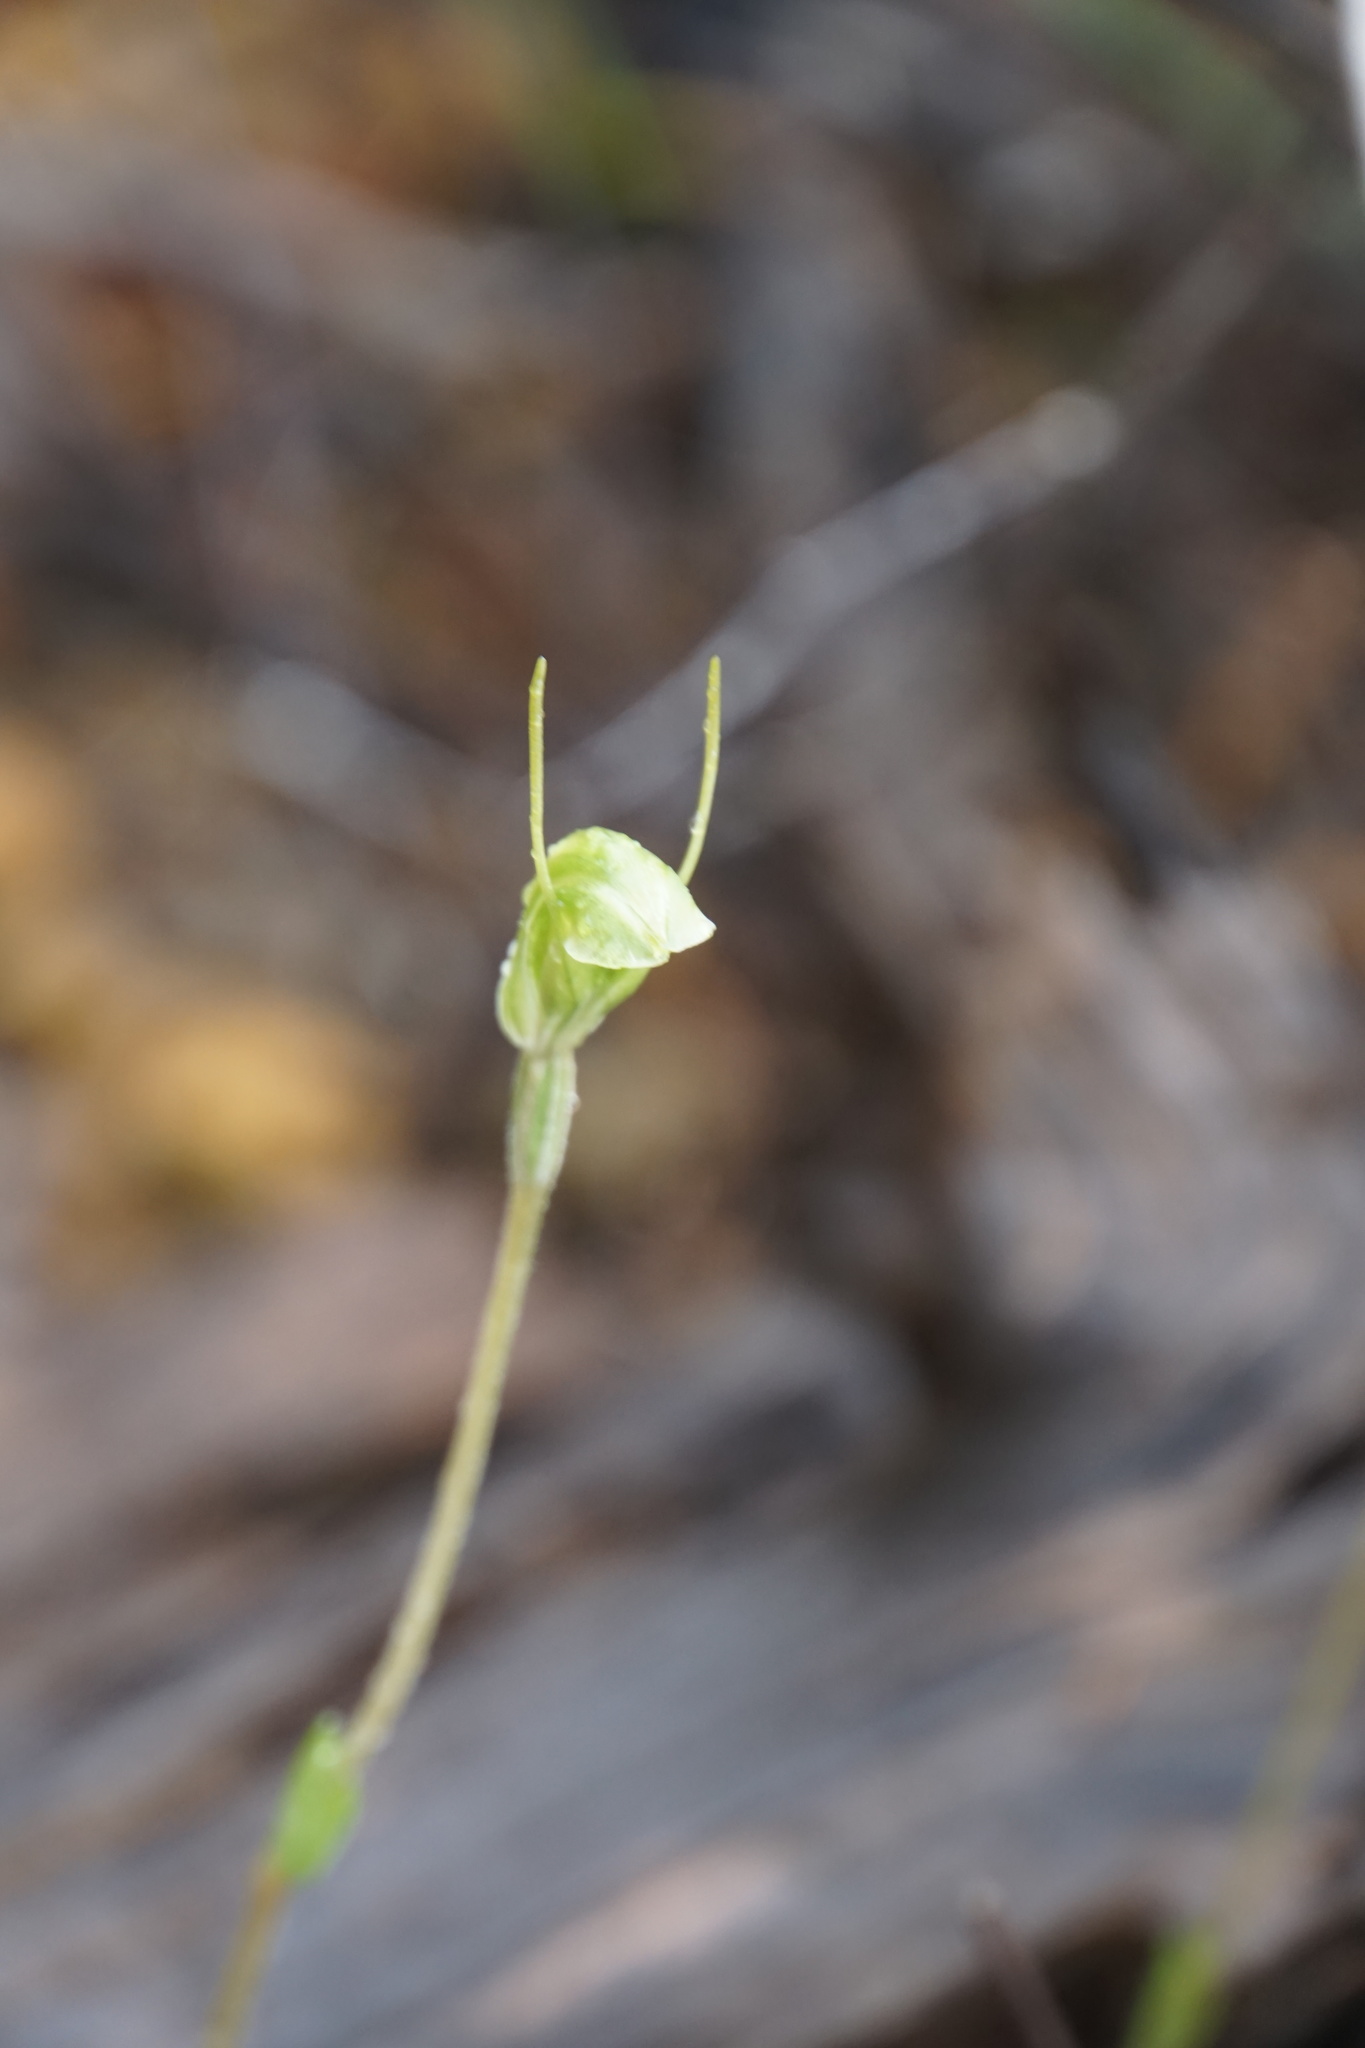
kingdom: Plantae
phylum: Tracheophyta
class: Liliopsida
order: Asparagales
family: Orchidaceae
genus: Pterostylis
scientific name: Pterostylis setulosa
